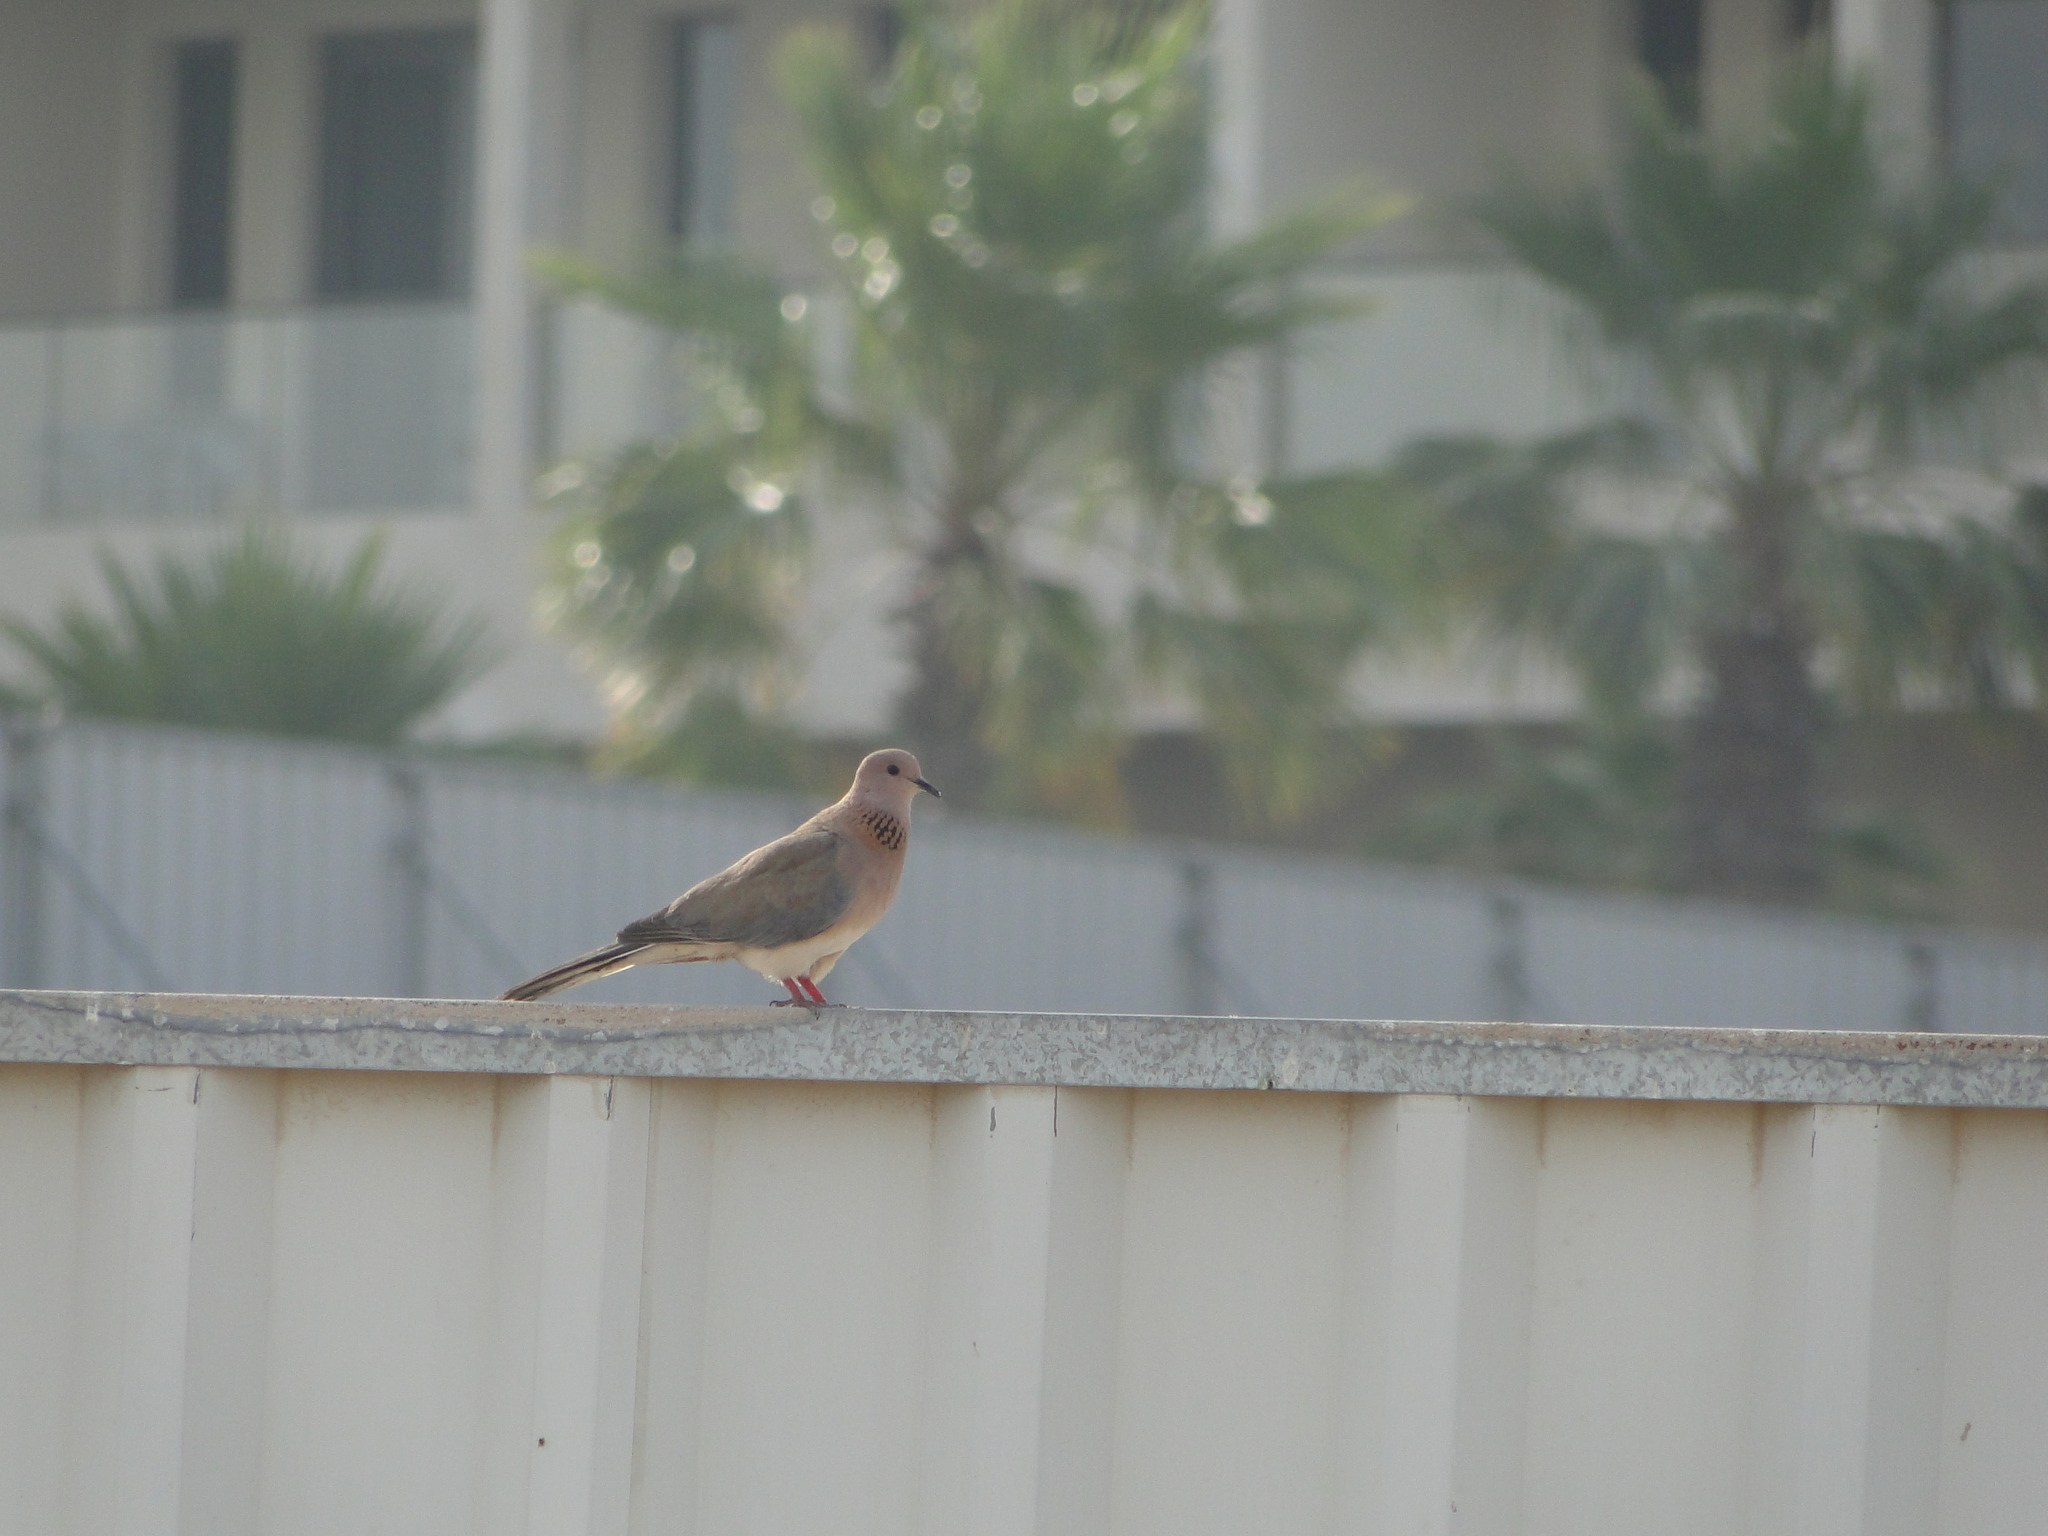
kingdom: Animalia
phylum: Chordata
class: Aves
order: Columbiformes
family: Columbidae
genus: Spilopelia
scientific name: Spilopelia senegalensis
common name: Laughing dove
